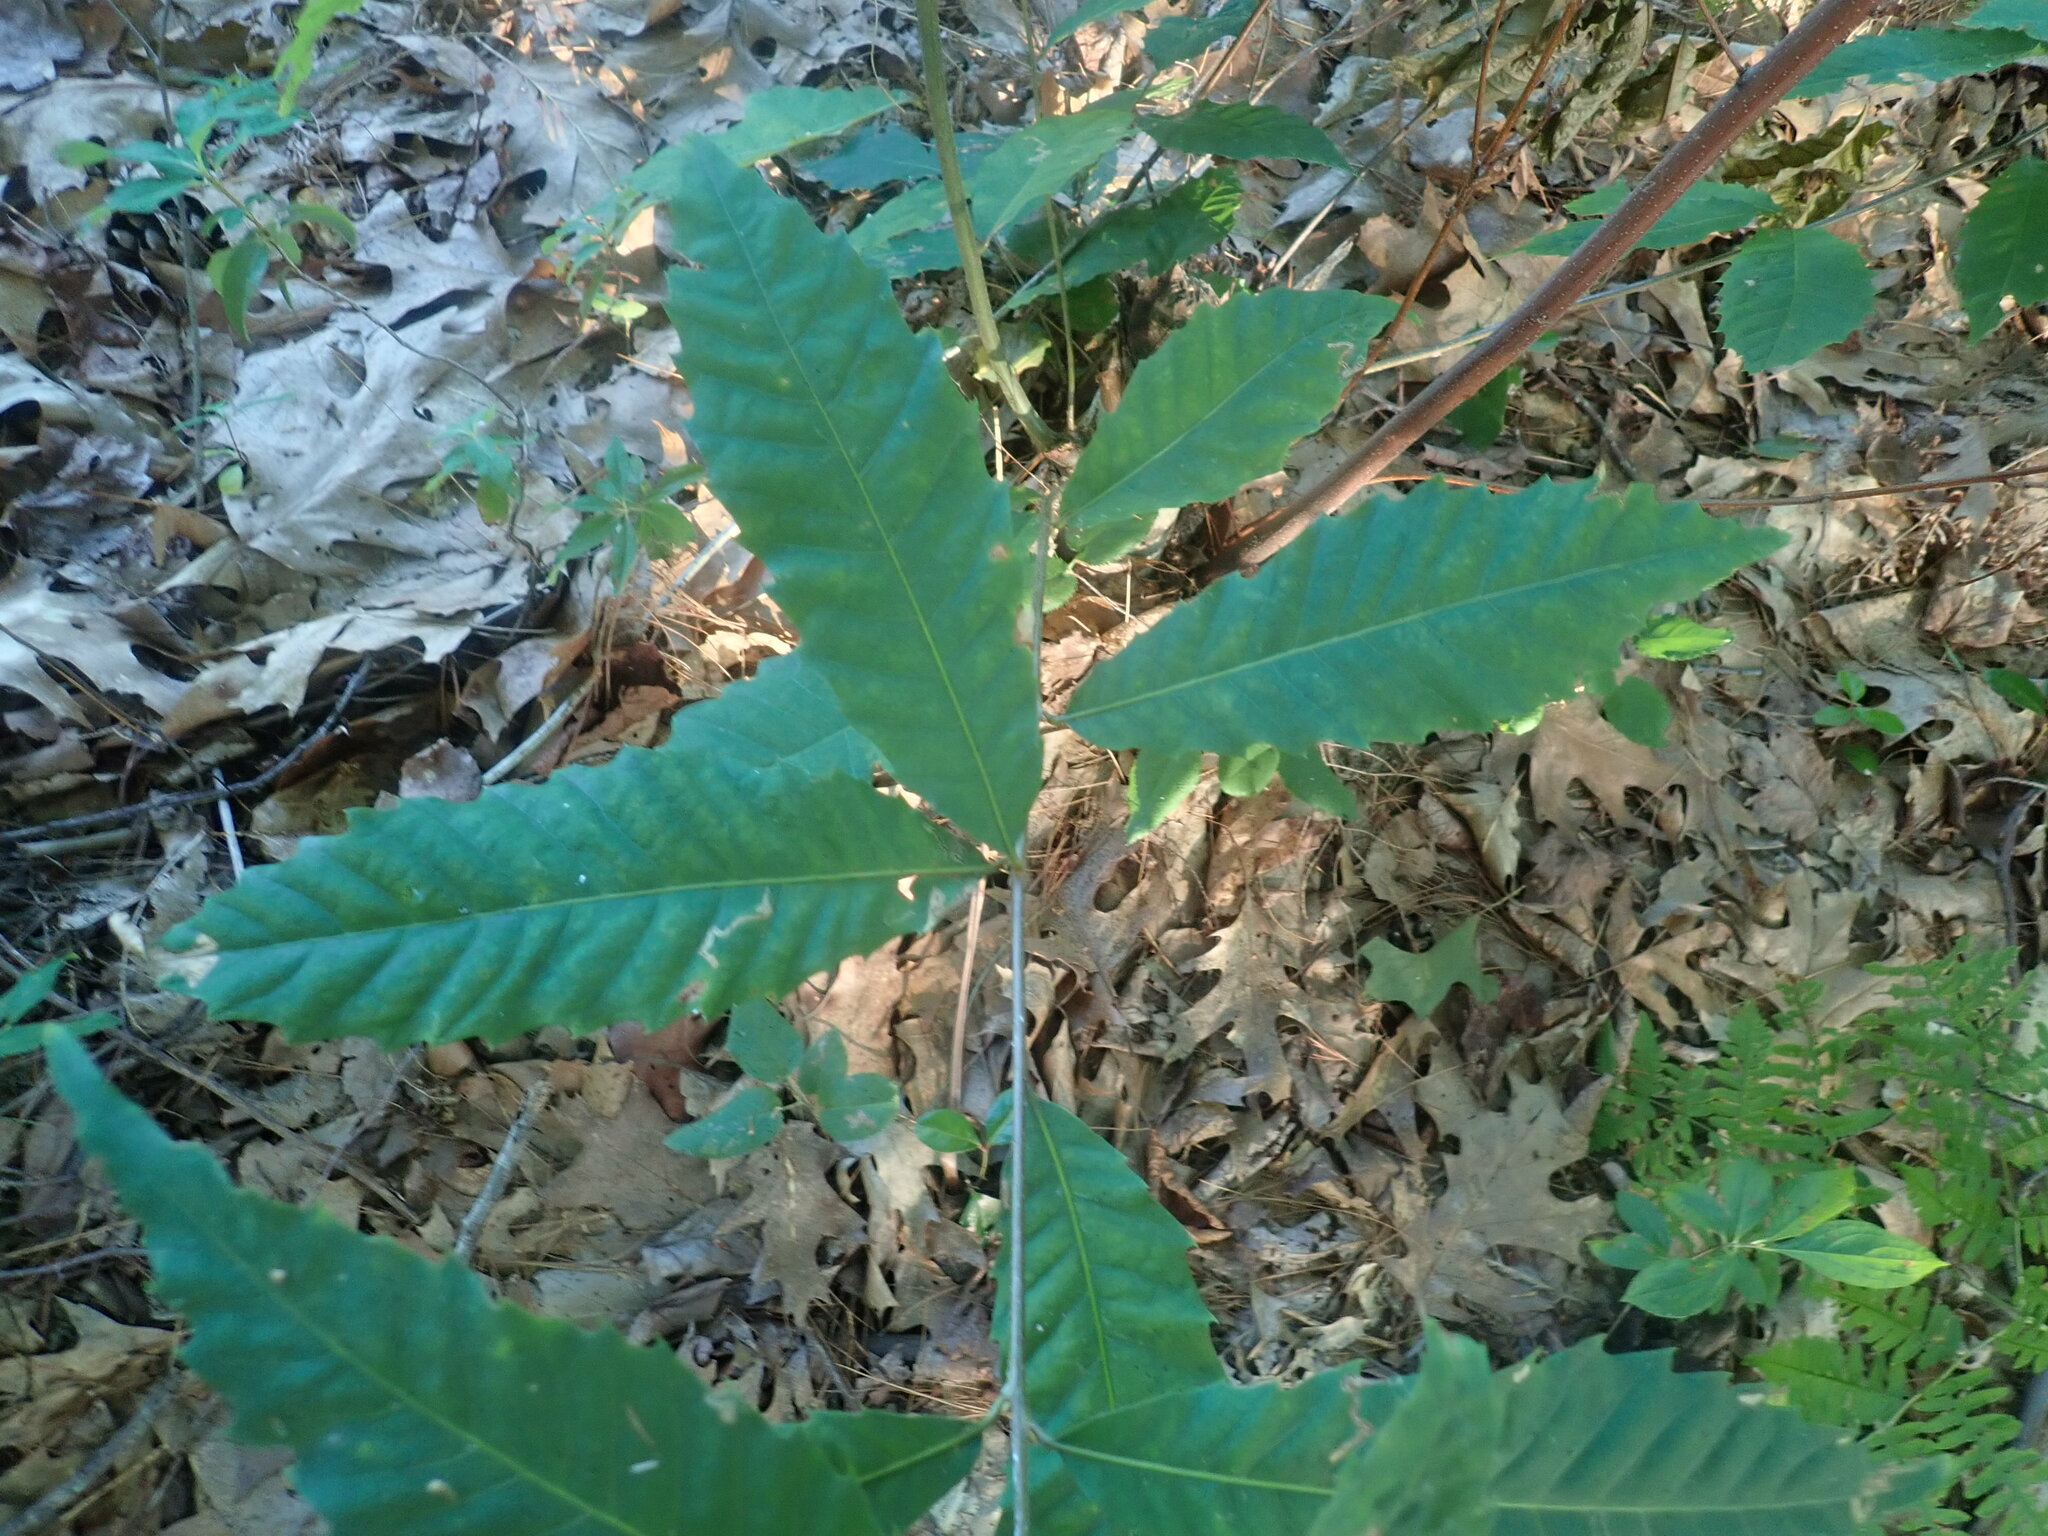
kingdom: Plantae
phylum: Tracheophyta
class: Magnoliopsida
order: Fagales
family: Fagaceae
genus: Castanea
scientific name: Castanea dentata
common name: American chestnut
